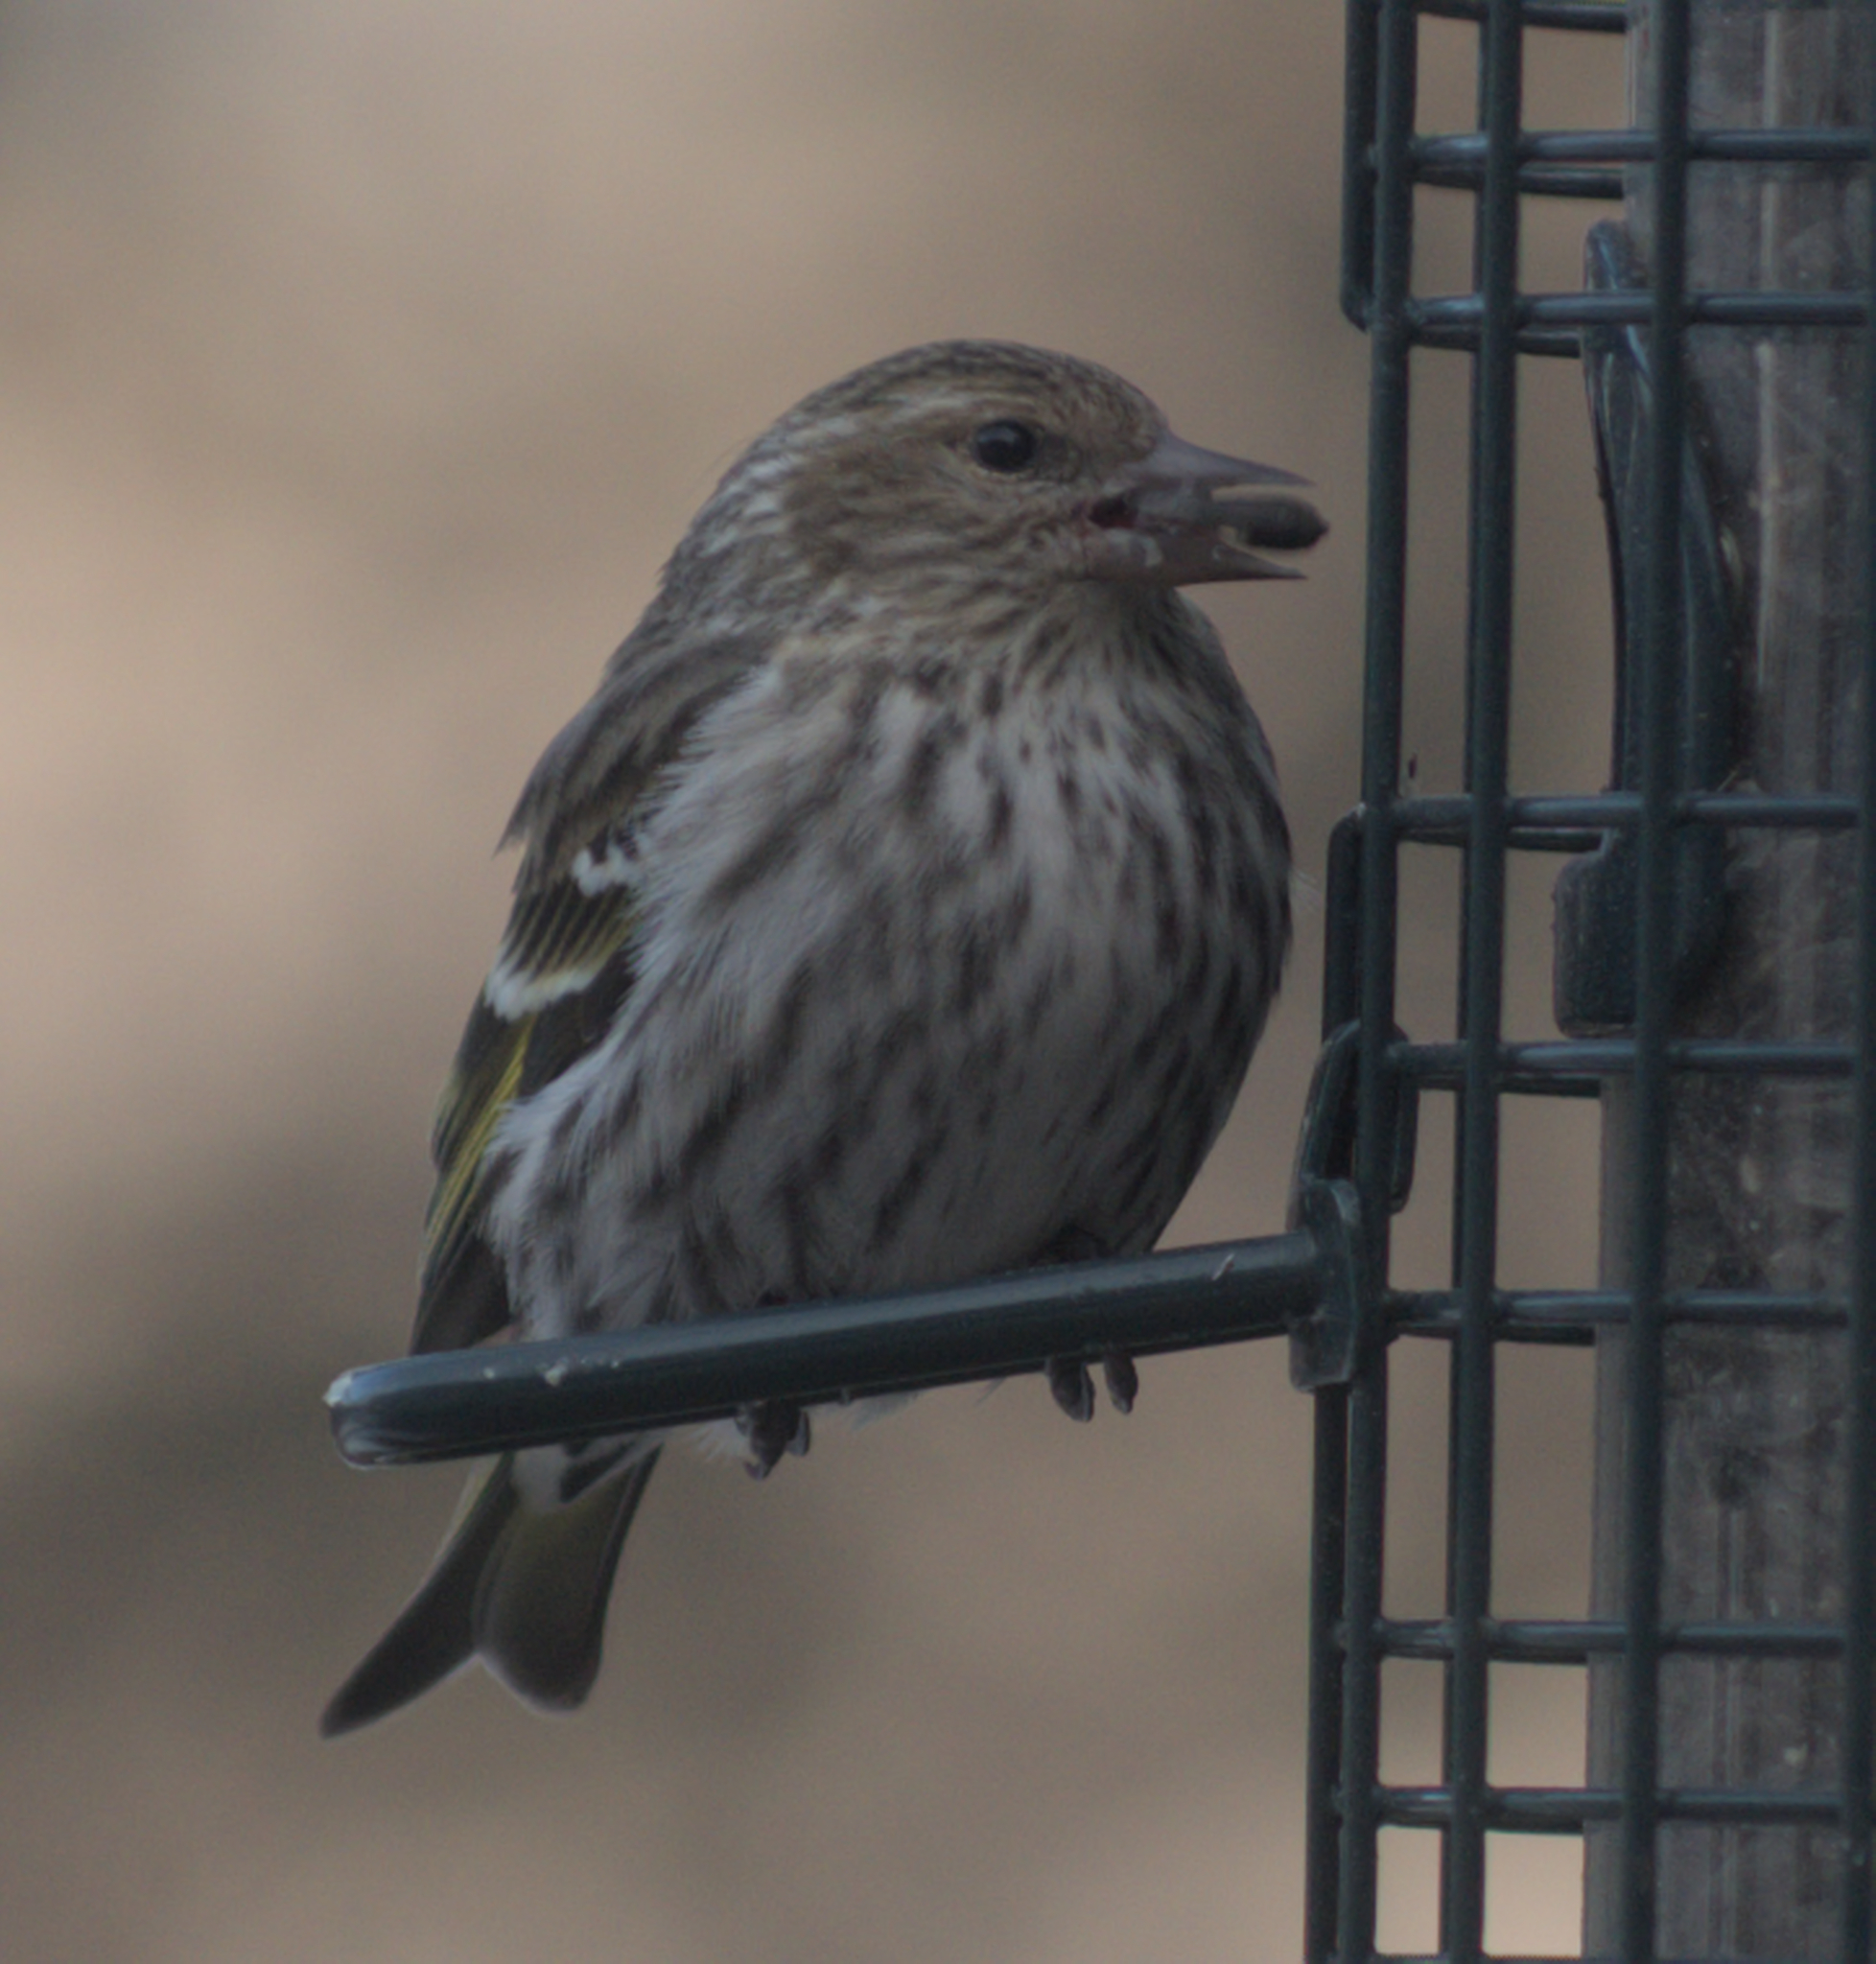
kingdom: Animalia
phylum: Chordata
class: Aves
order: Passeriformes
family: Fringillidae
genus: Spinus
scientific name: Spinus pinus
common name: Pine siskin
